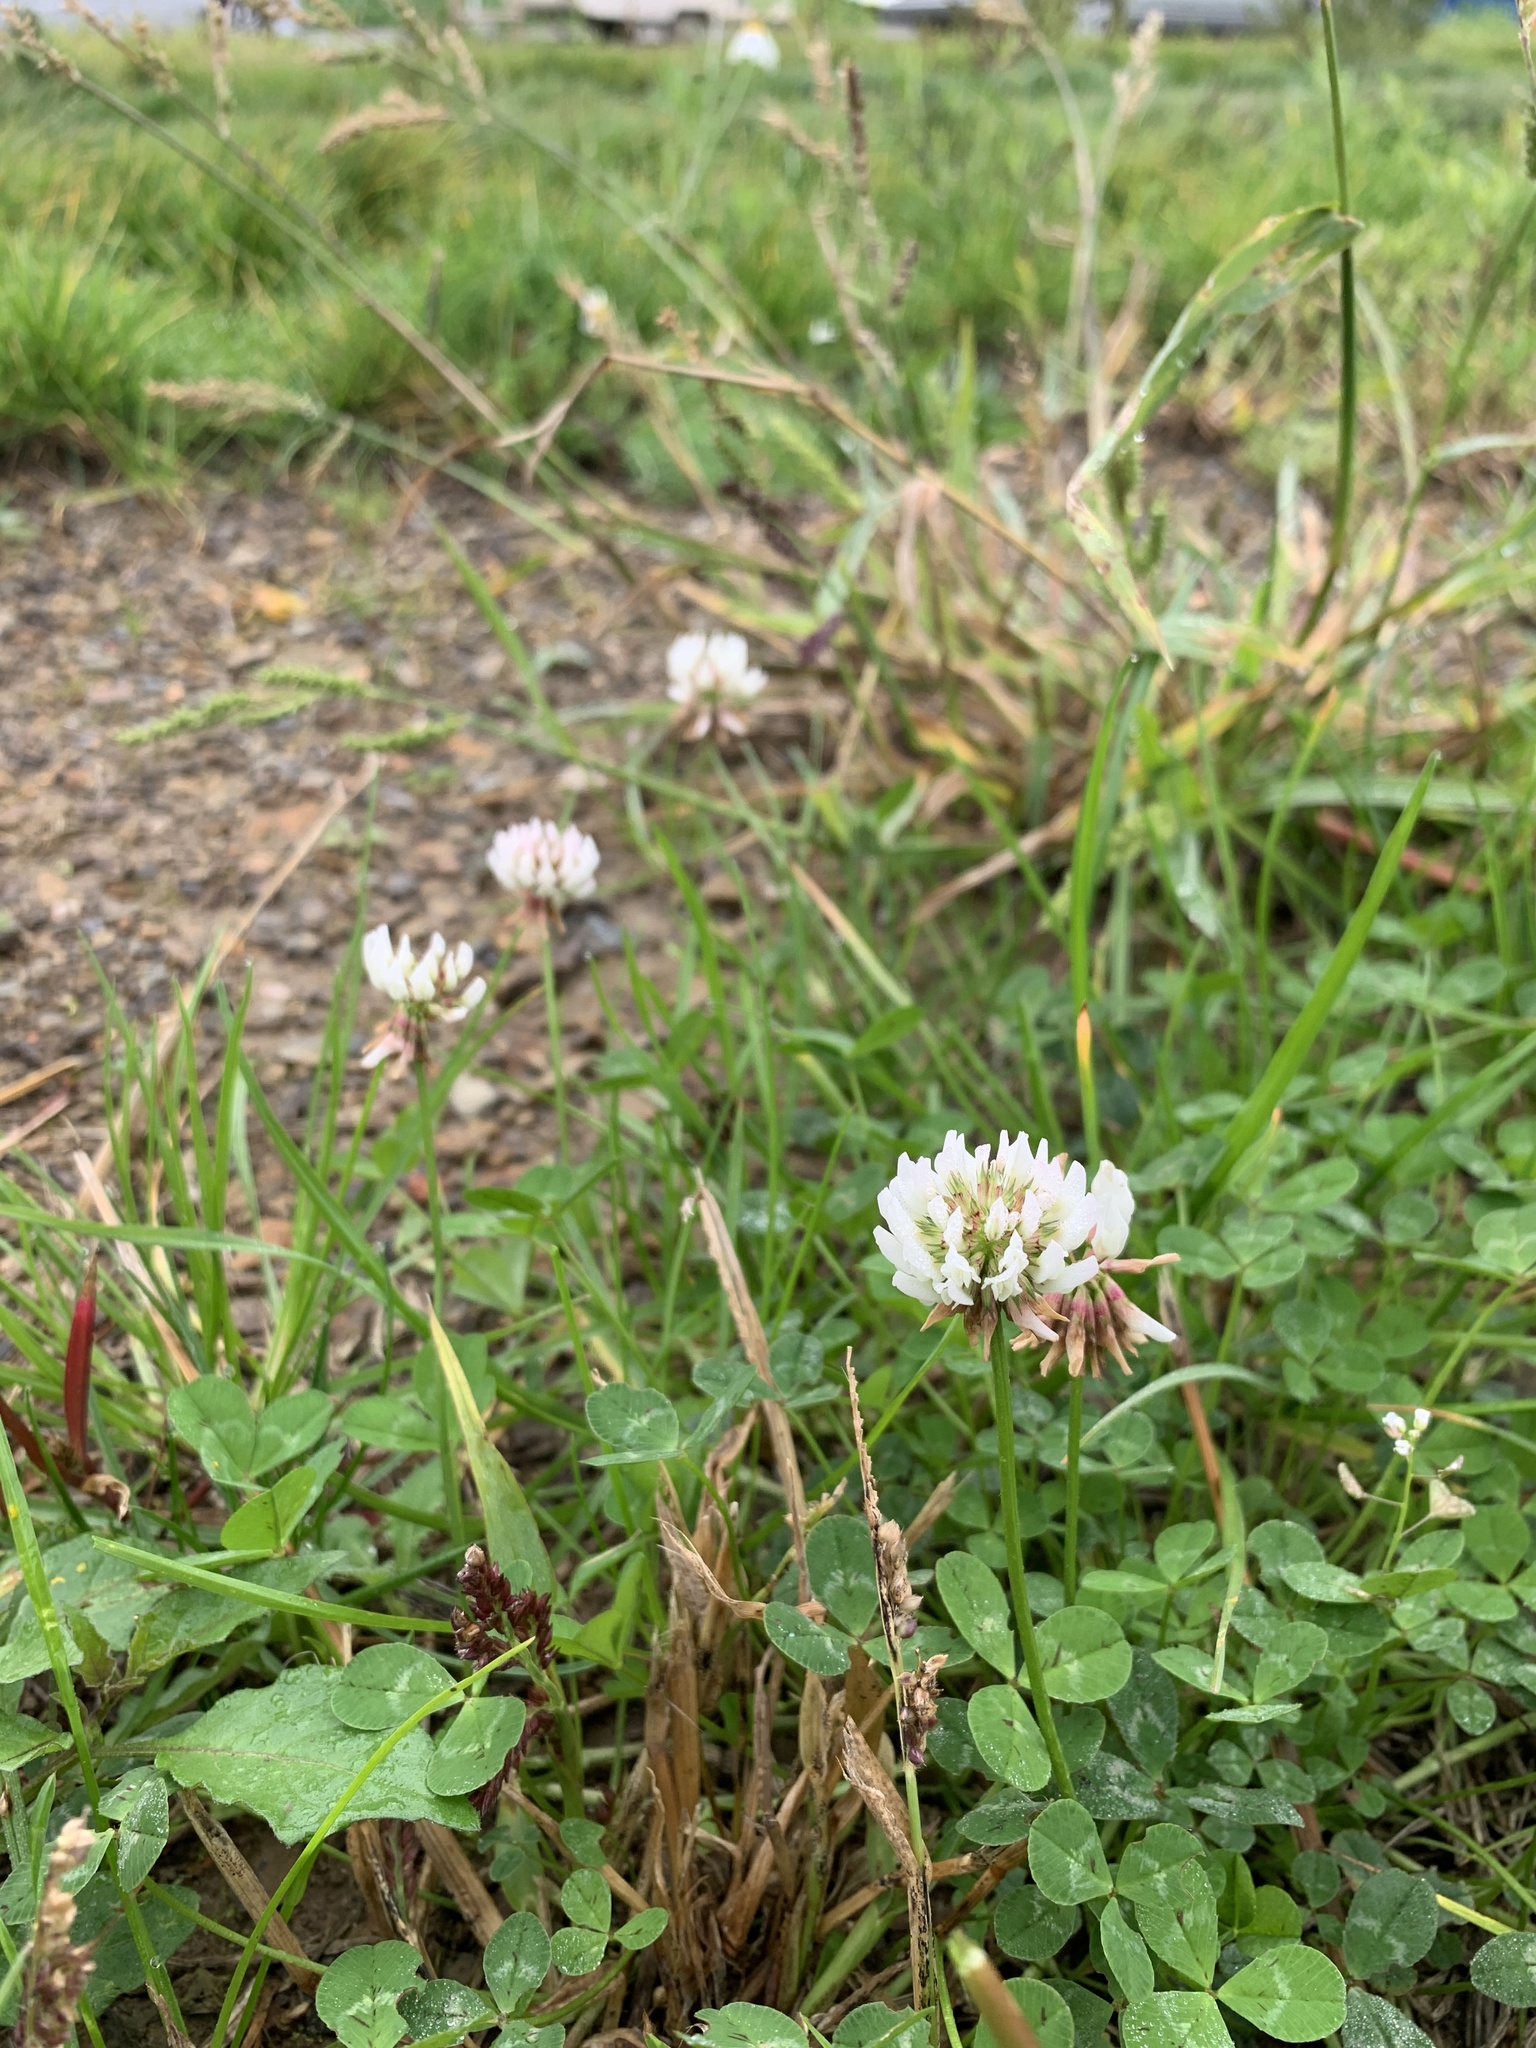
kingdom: Plantae
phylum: Tracheophyta
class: Magnoliopsida
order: Fabales
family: Fabaceae
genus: Trifolium
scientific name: Trifolium repens
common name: White clover
